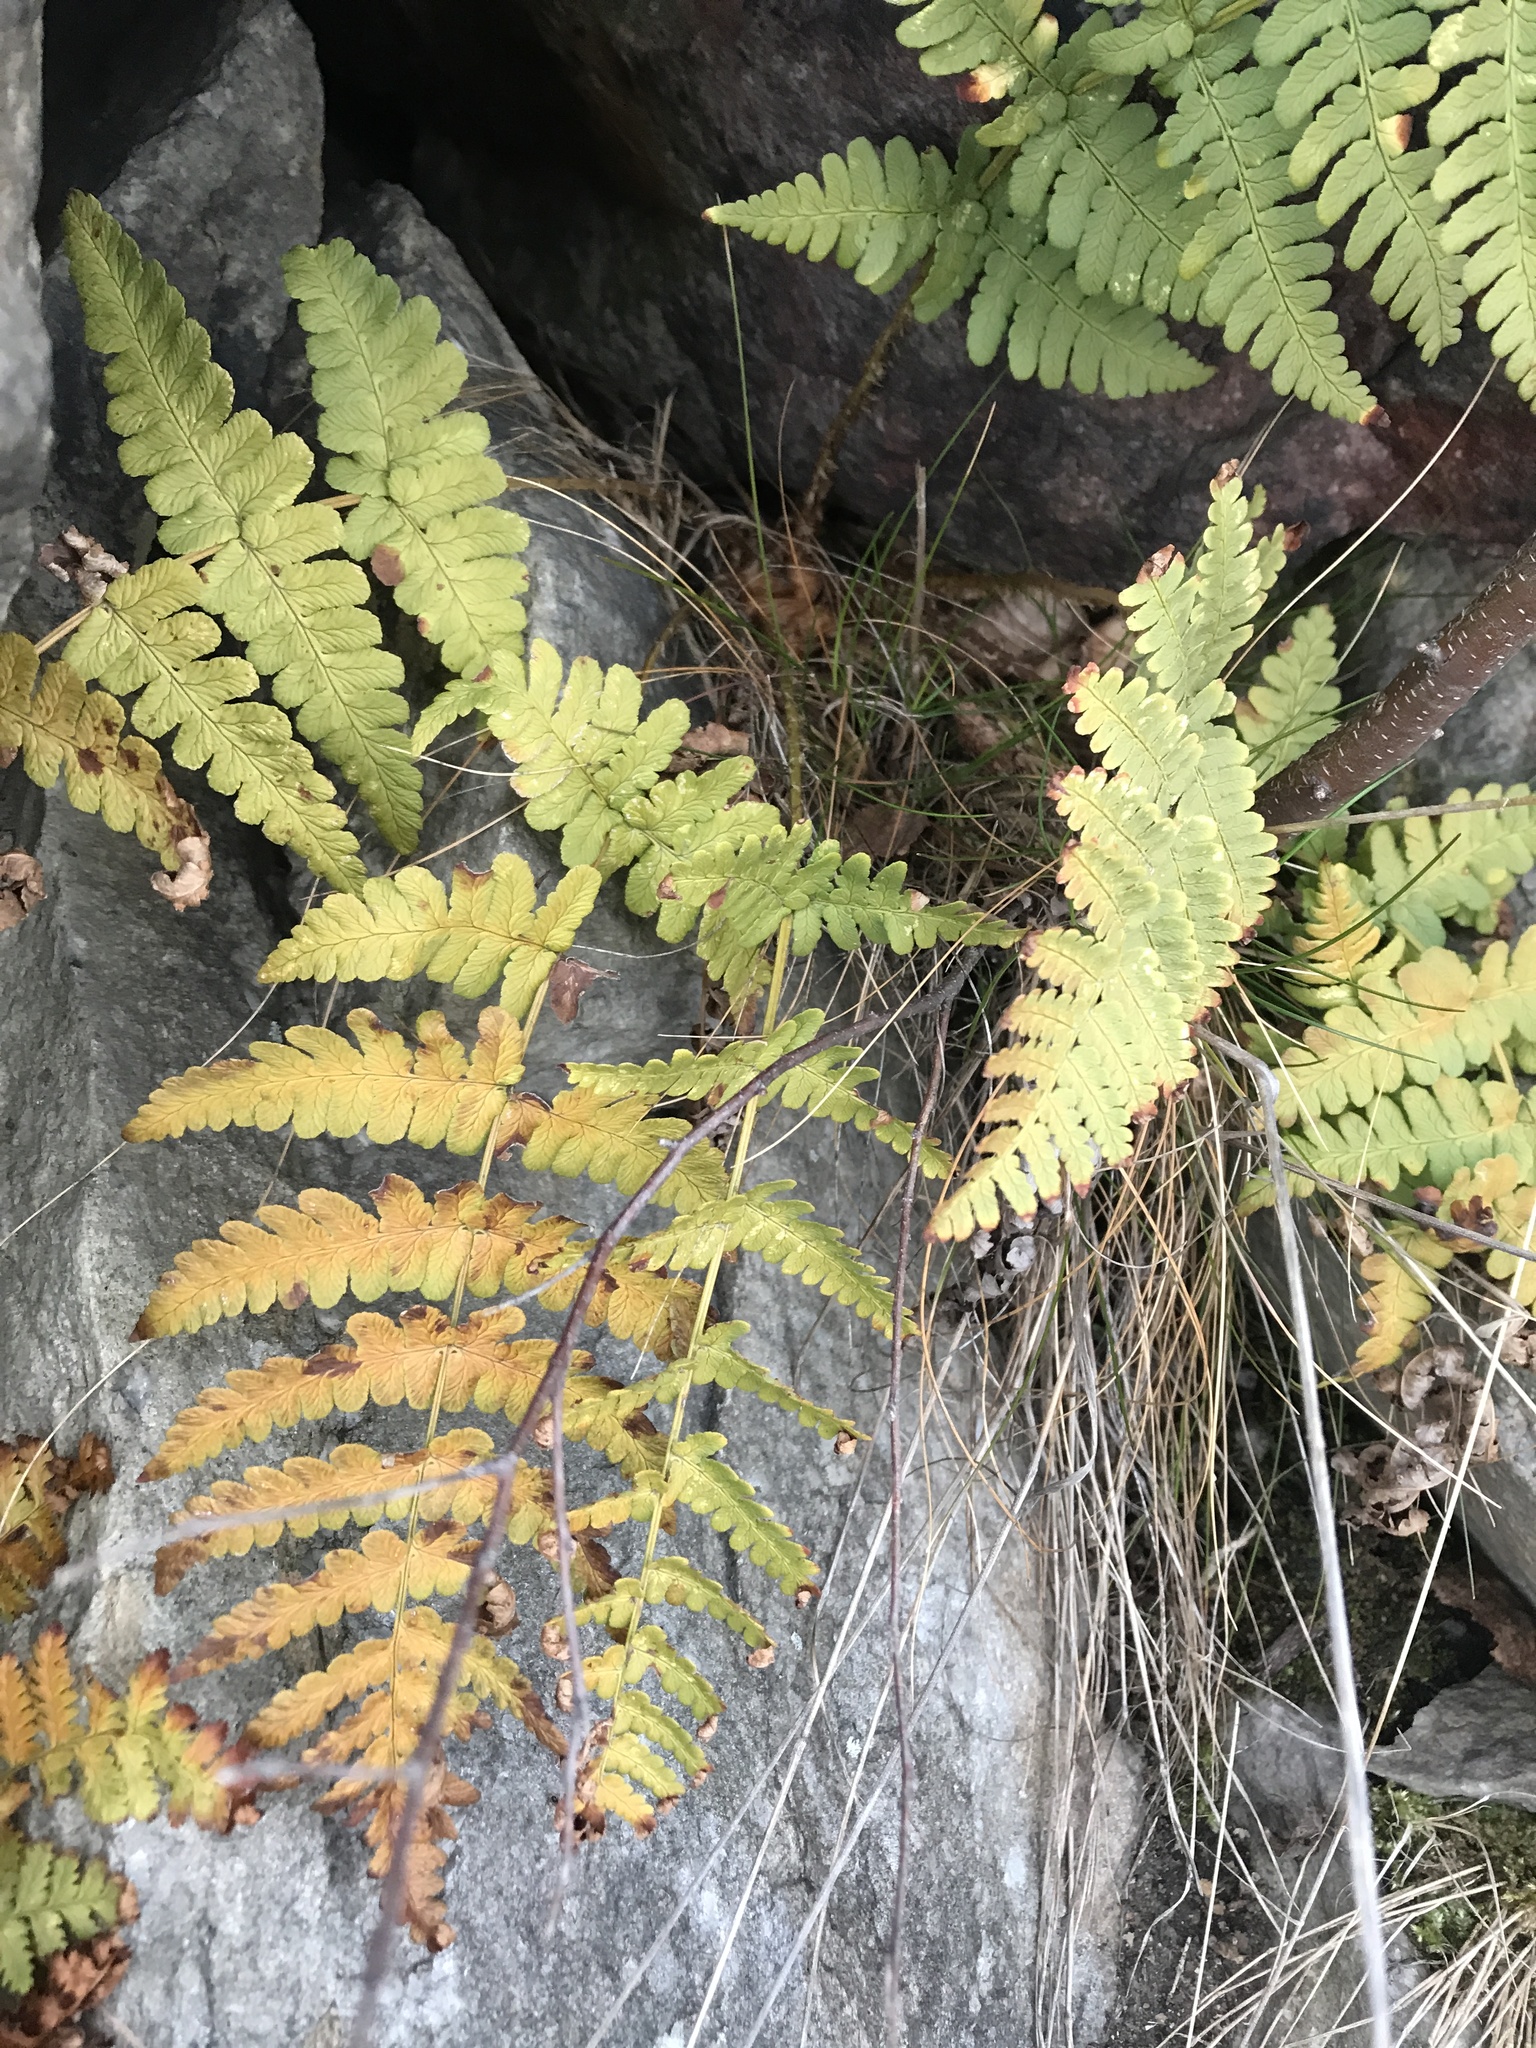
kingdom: Plantae
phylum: Tracheophyta
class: Polypodiopsida
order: Polypodiales
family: Dryopteridaceae
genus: Dryopteris
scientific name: Dryopteris marginalis
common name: Marginal wood fern
